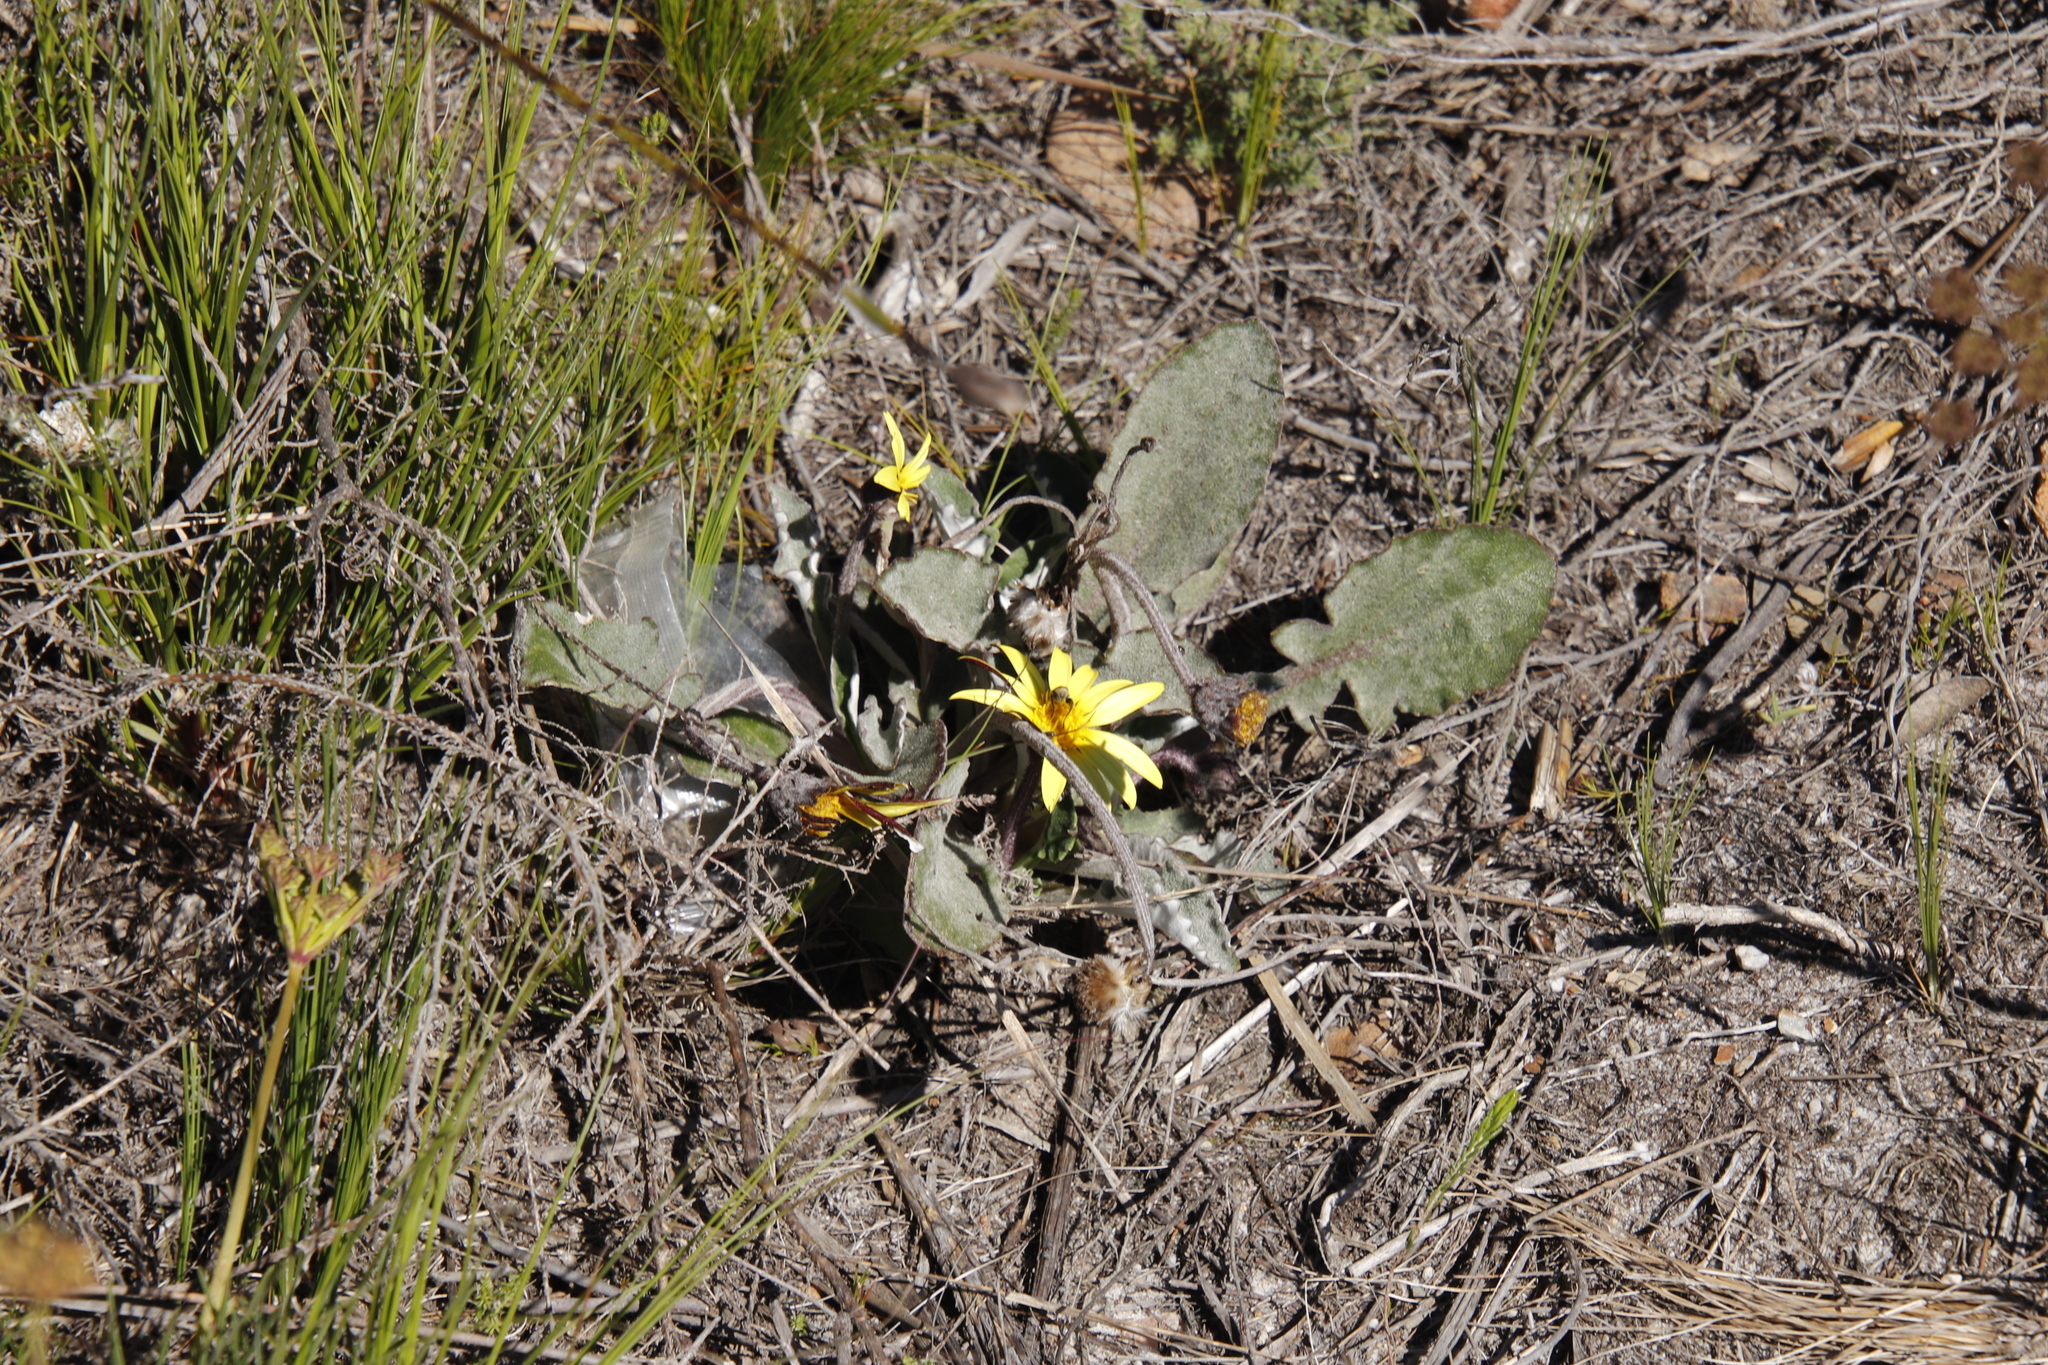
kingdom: Plantae
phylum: Tracheophyta
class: Magnoliopsida
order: Asterales
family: Asteraceae
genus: Haplocarpha
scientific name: Haplocarpha lanata
